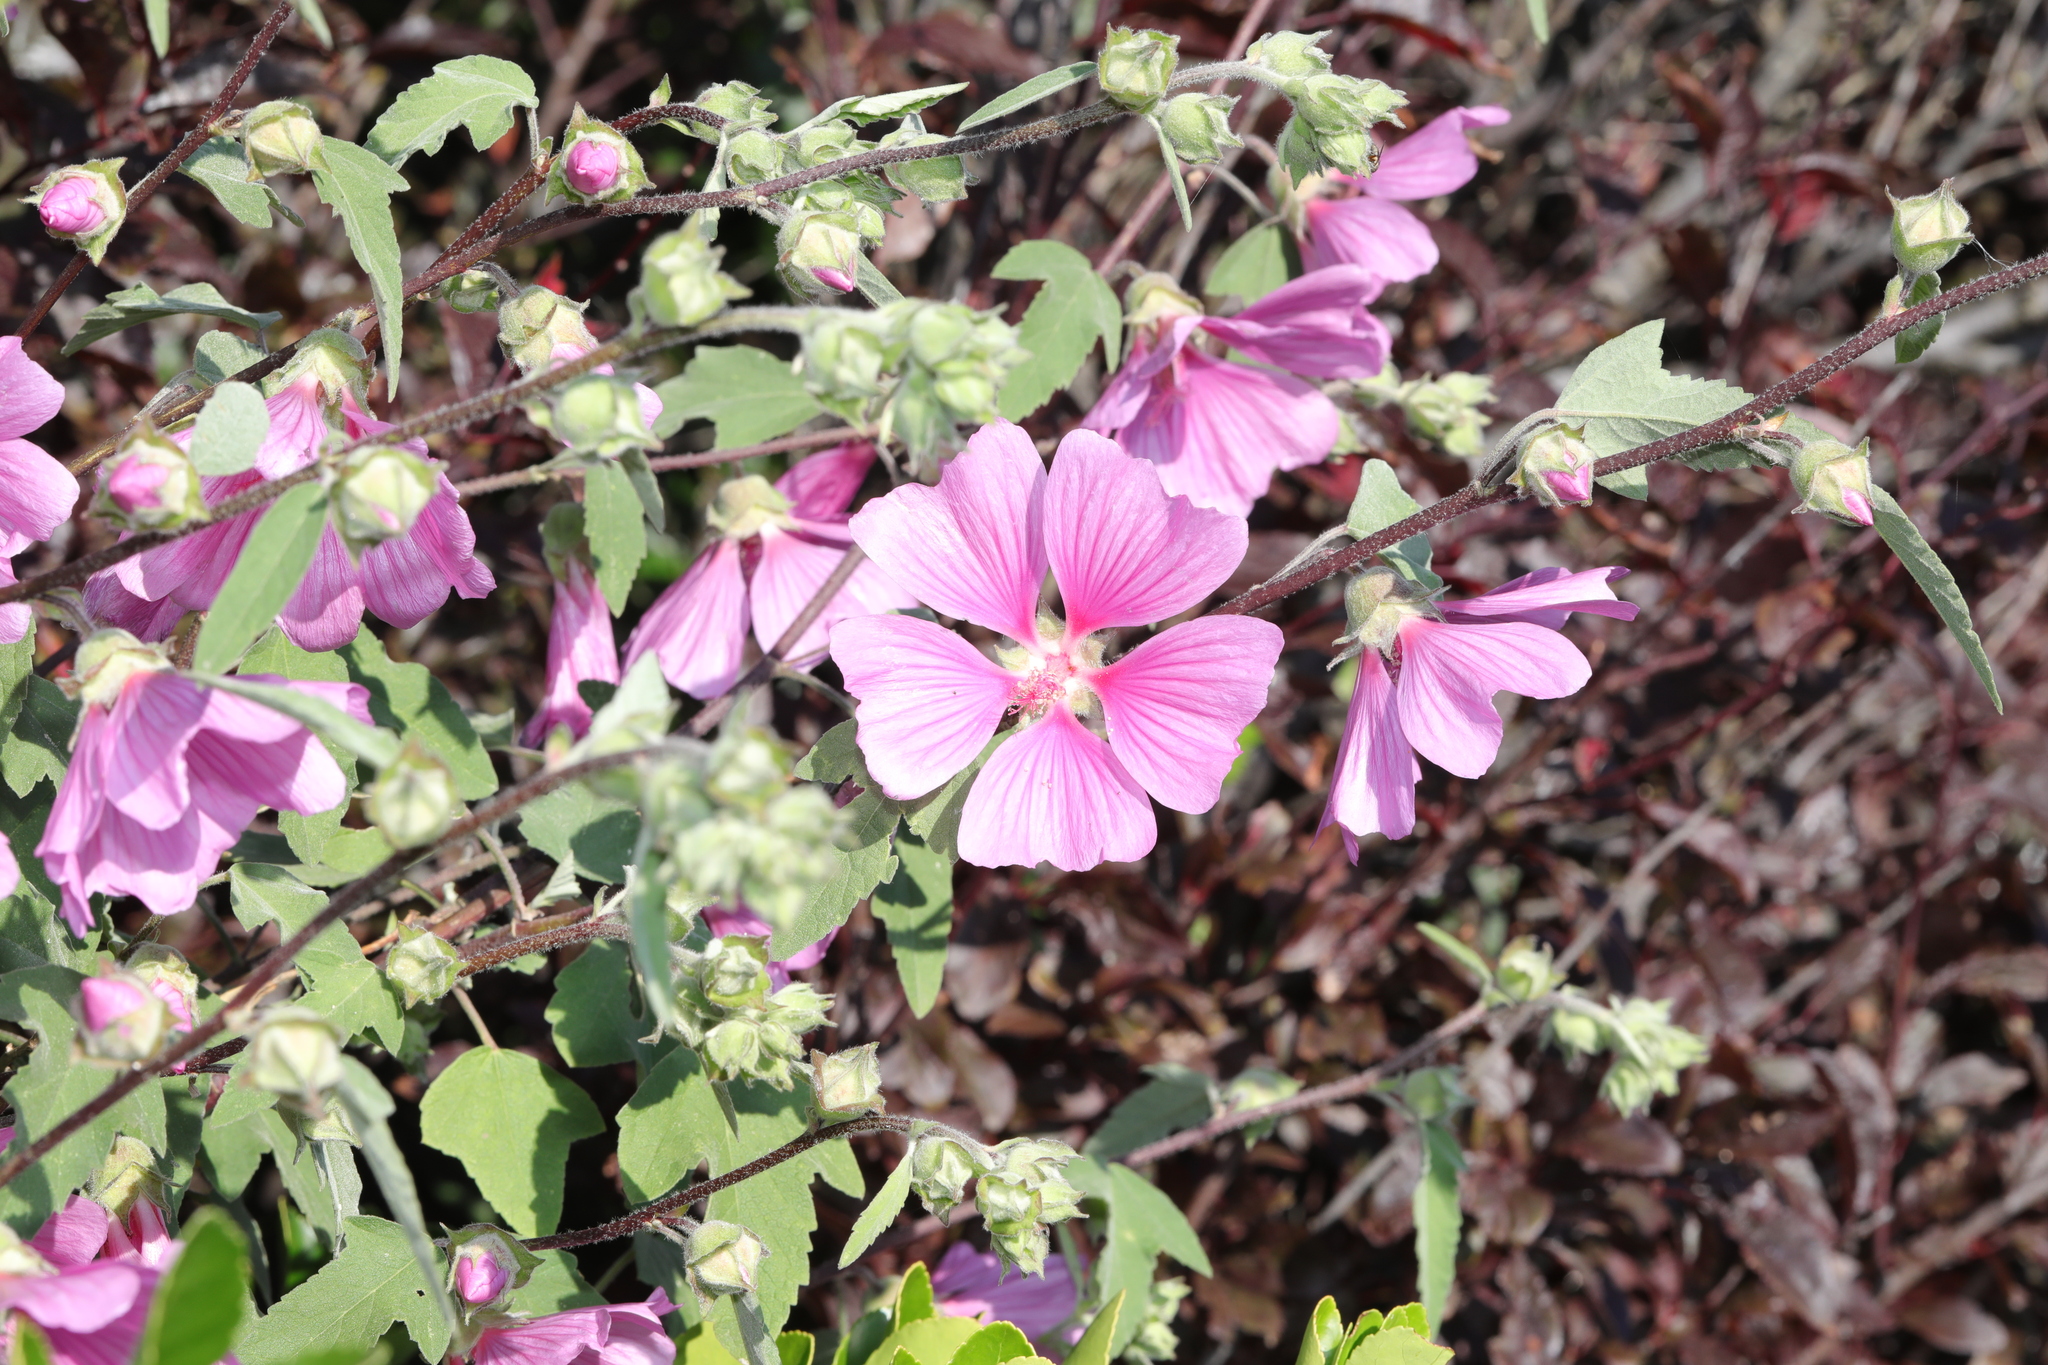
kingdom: Plantae
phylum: Tracheophyta
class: Magnoliopsida
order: Malvales
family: Malvaceae
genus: Malva
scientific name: Malva clementii
